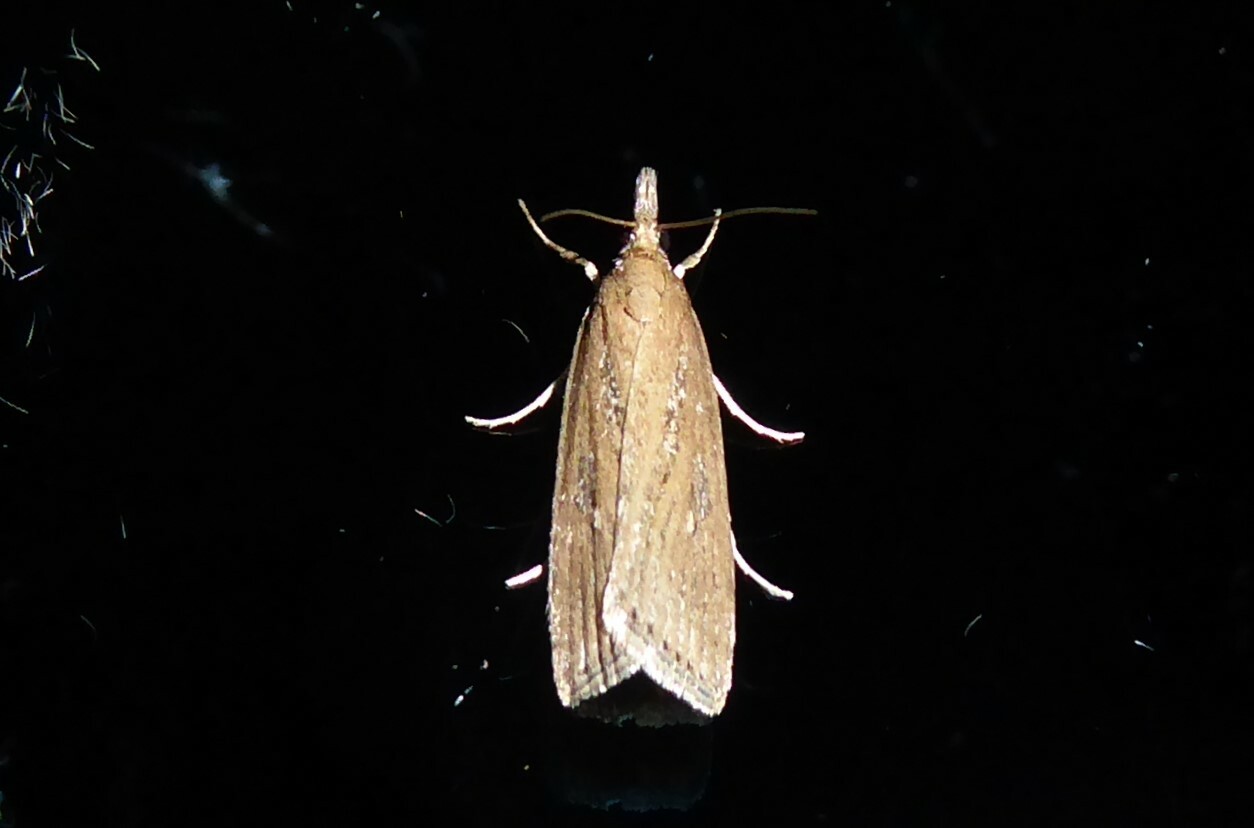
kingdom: Animalia
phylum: Arthropoda
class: Insecta
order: Lepidoptera
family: Crambidae
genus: Eudonia
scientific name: Eudonia octophora
